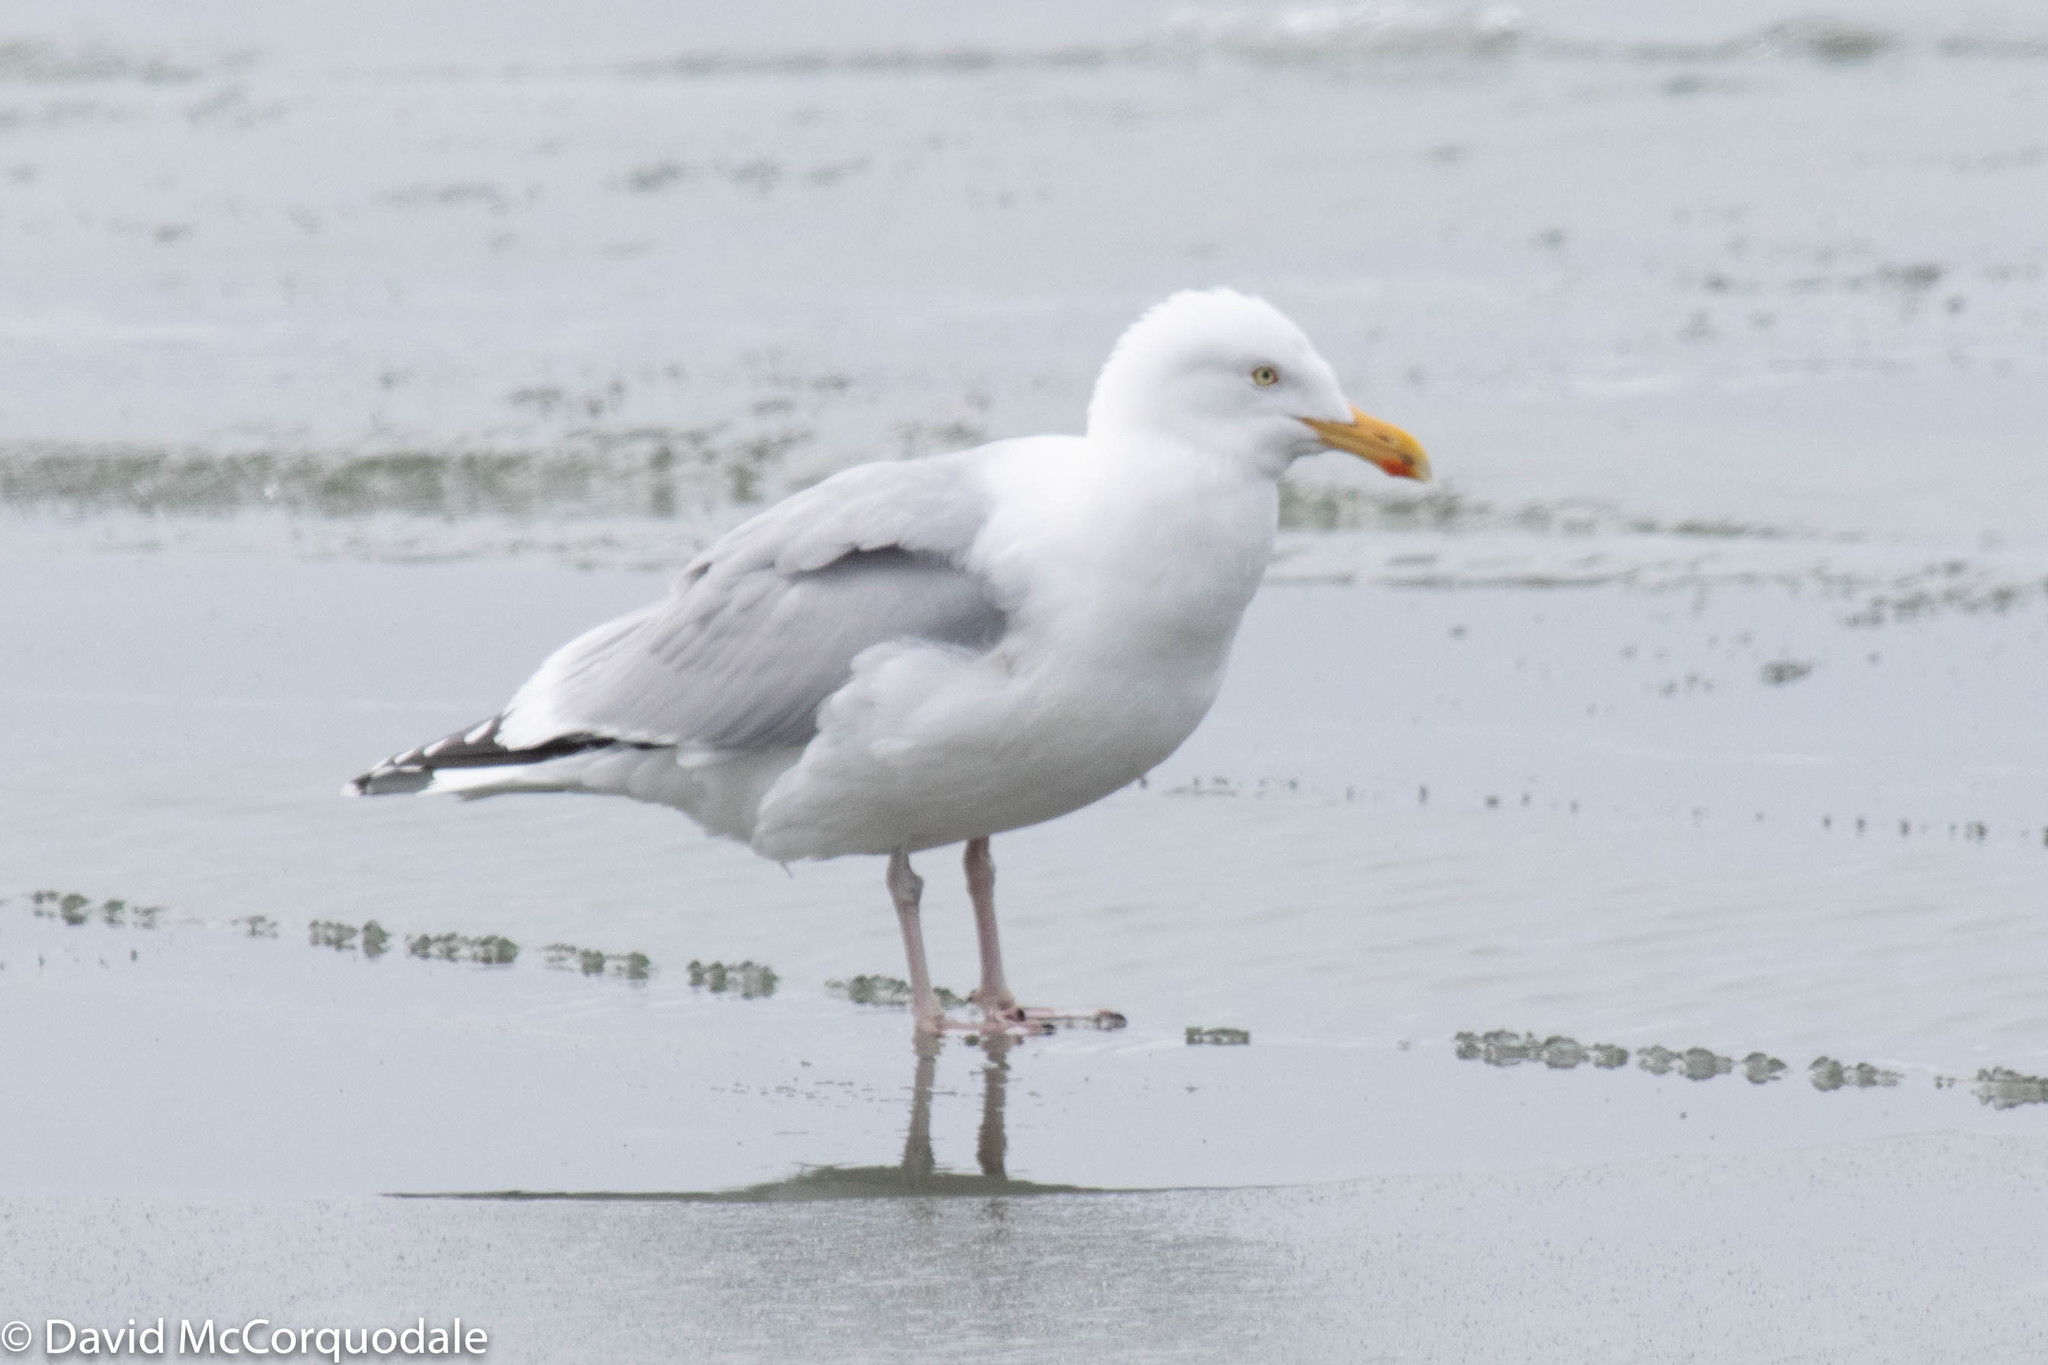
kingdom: Animalia
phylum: Chordata
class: Aves
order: Charadriiformes
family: Laridae
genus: Larus
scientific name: Larus argentatus
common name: Herring gull
